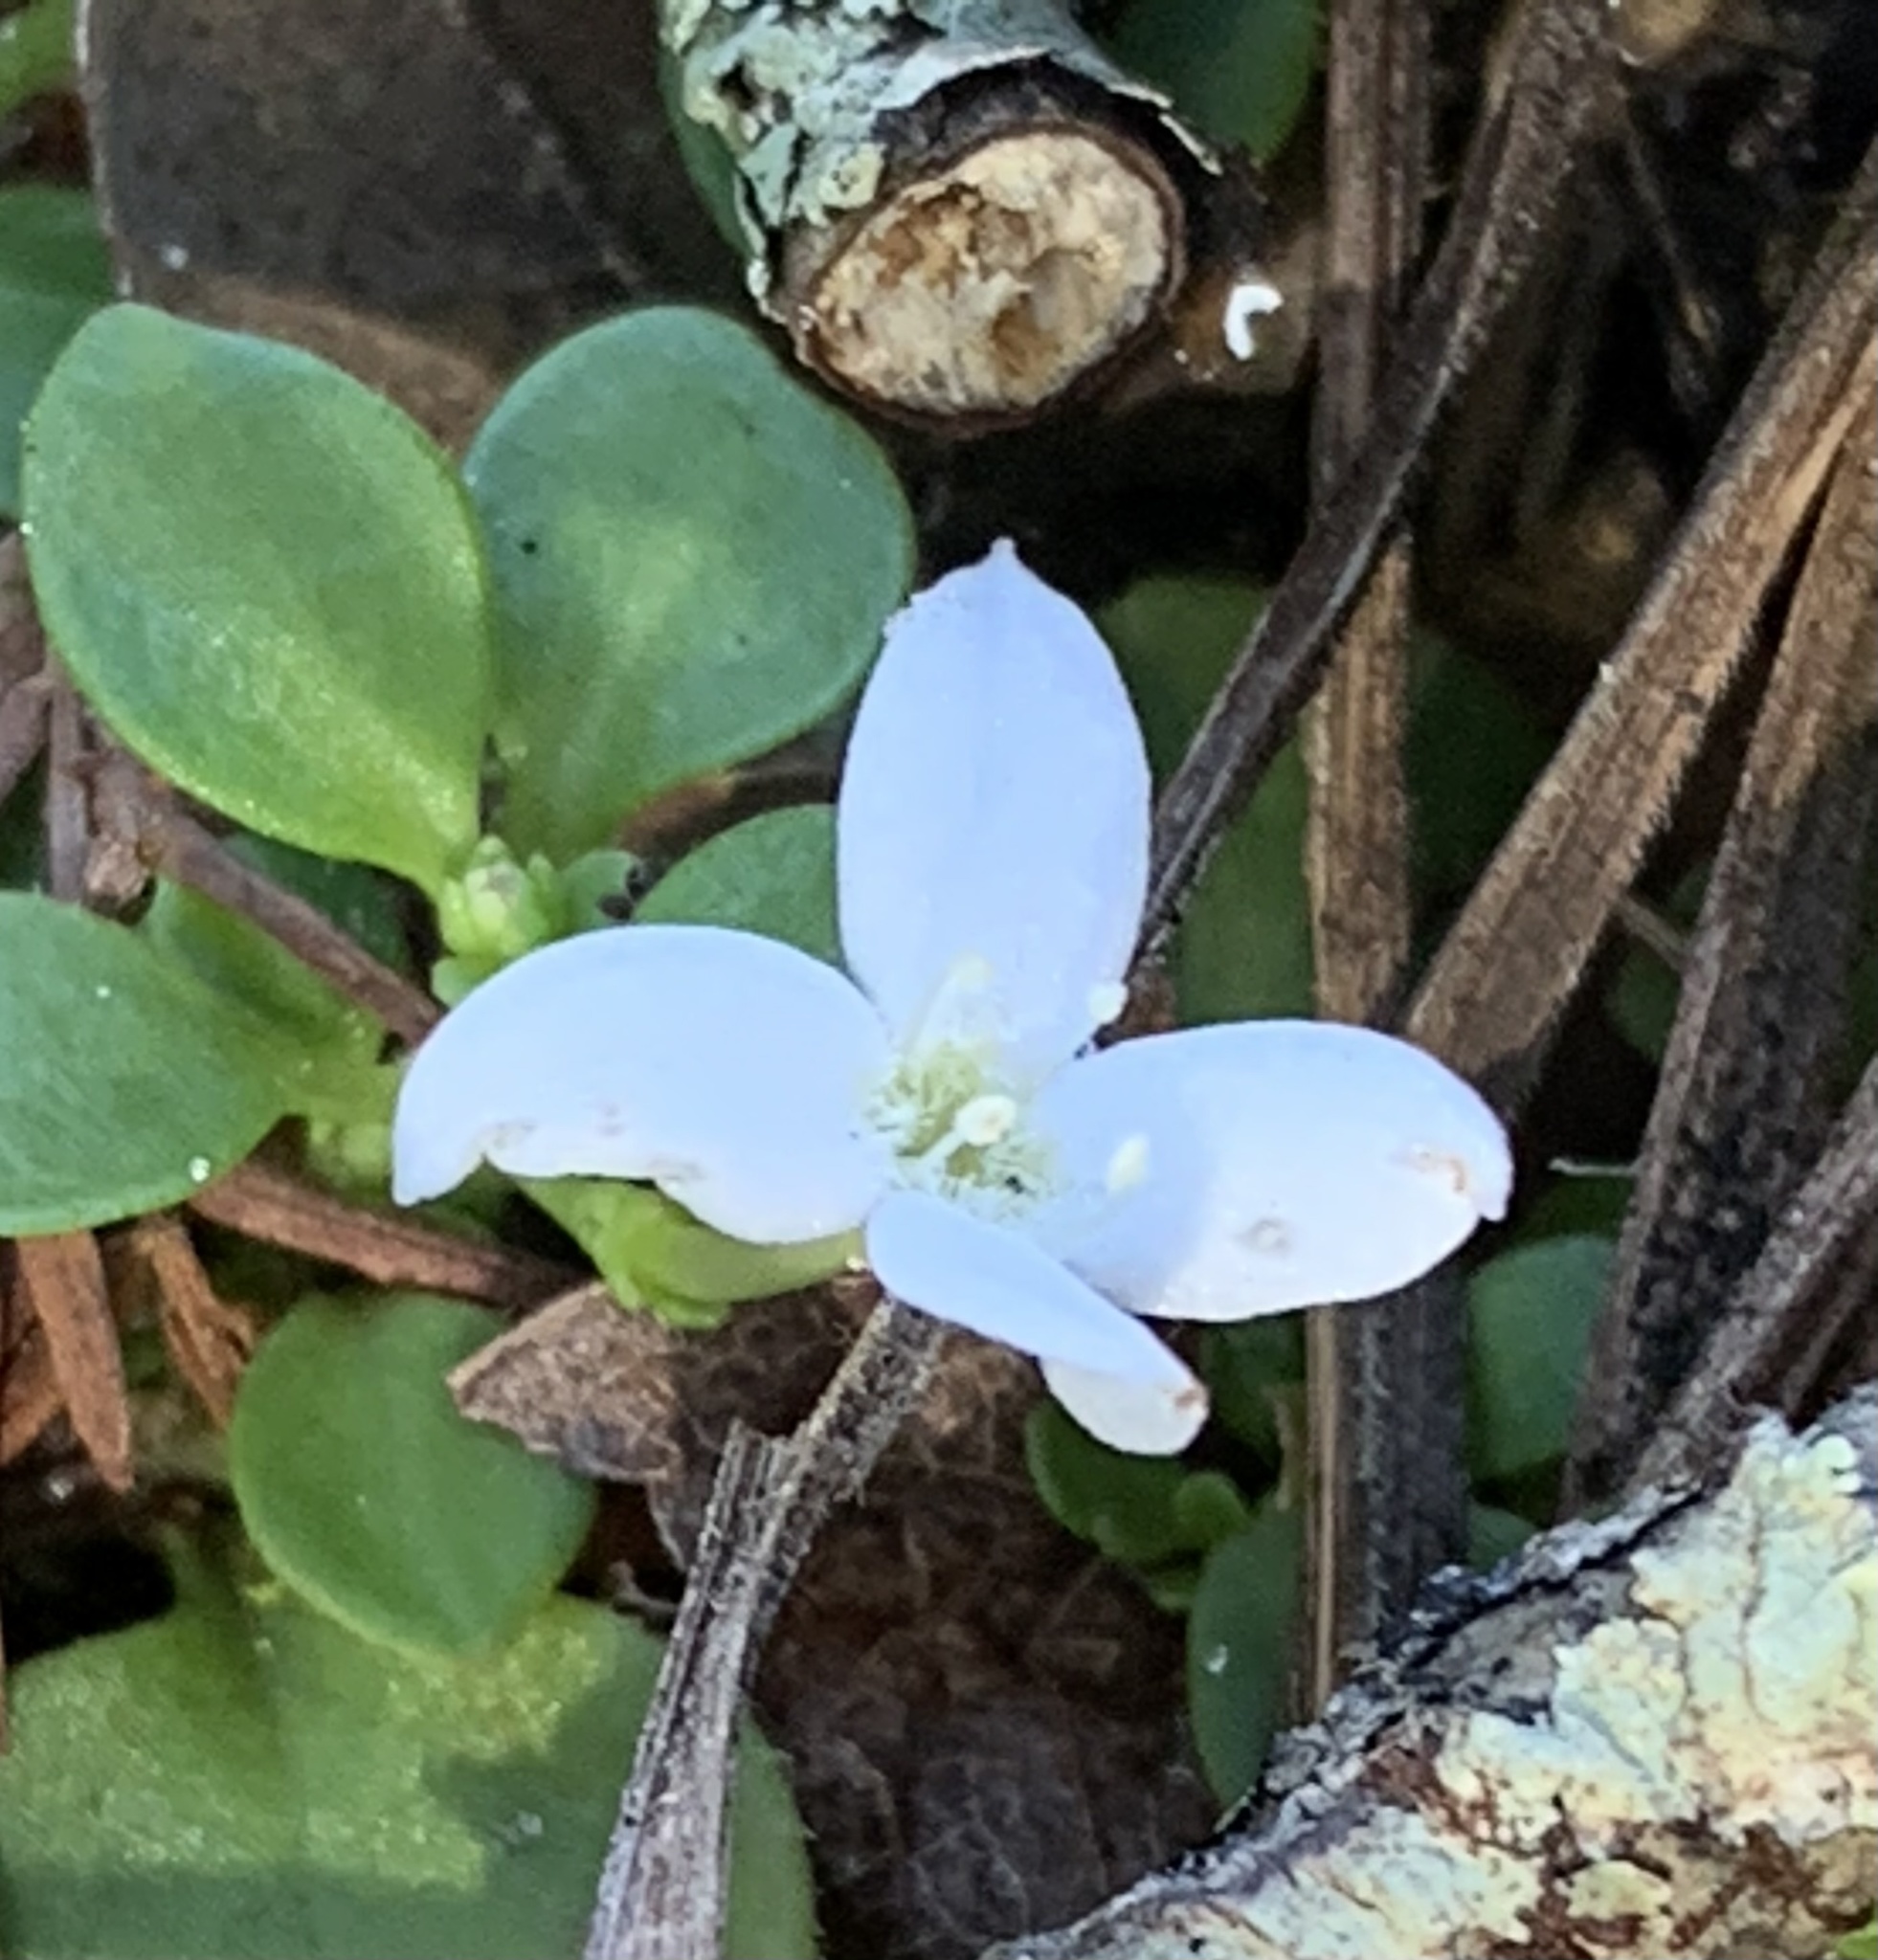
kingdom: Plantae
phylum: Tracheophyta
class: Magnoliopsida
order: Gentianales
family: Rubiaceae
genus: Houstonia
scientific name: Houstonia procumbens
